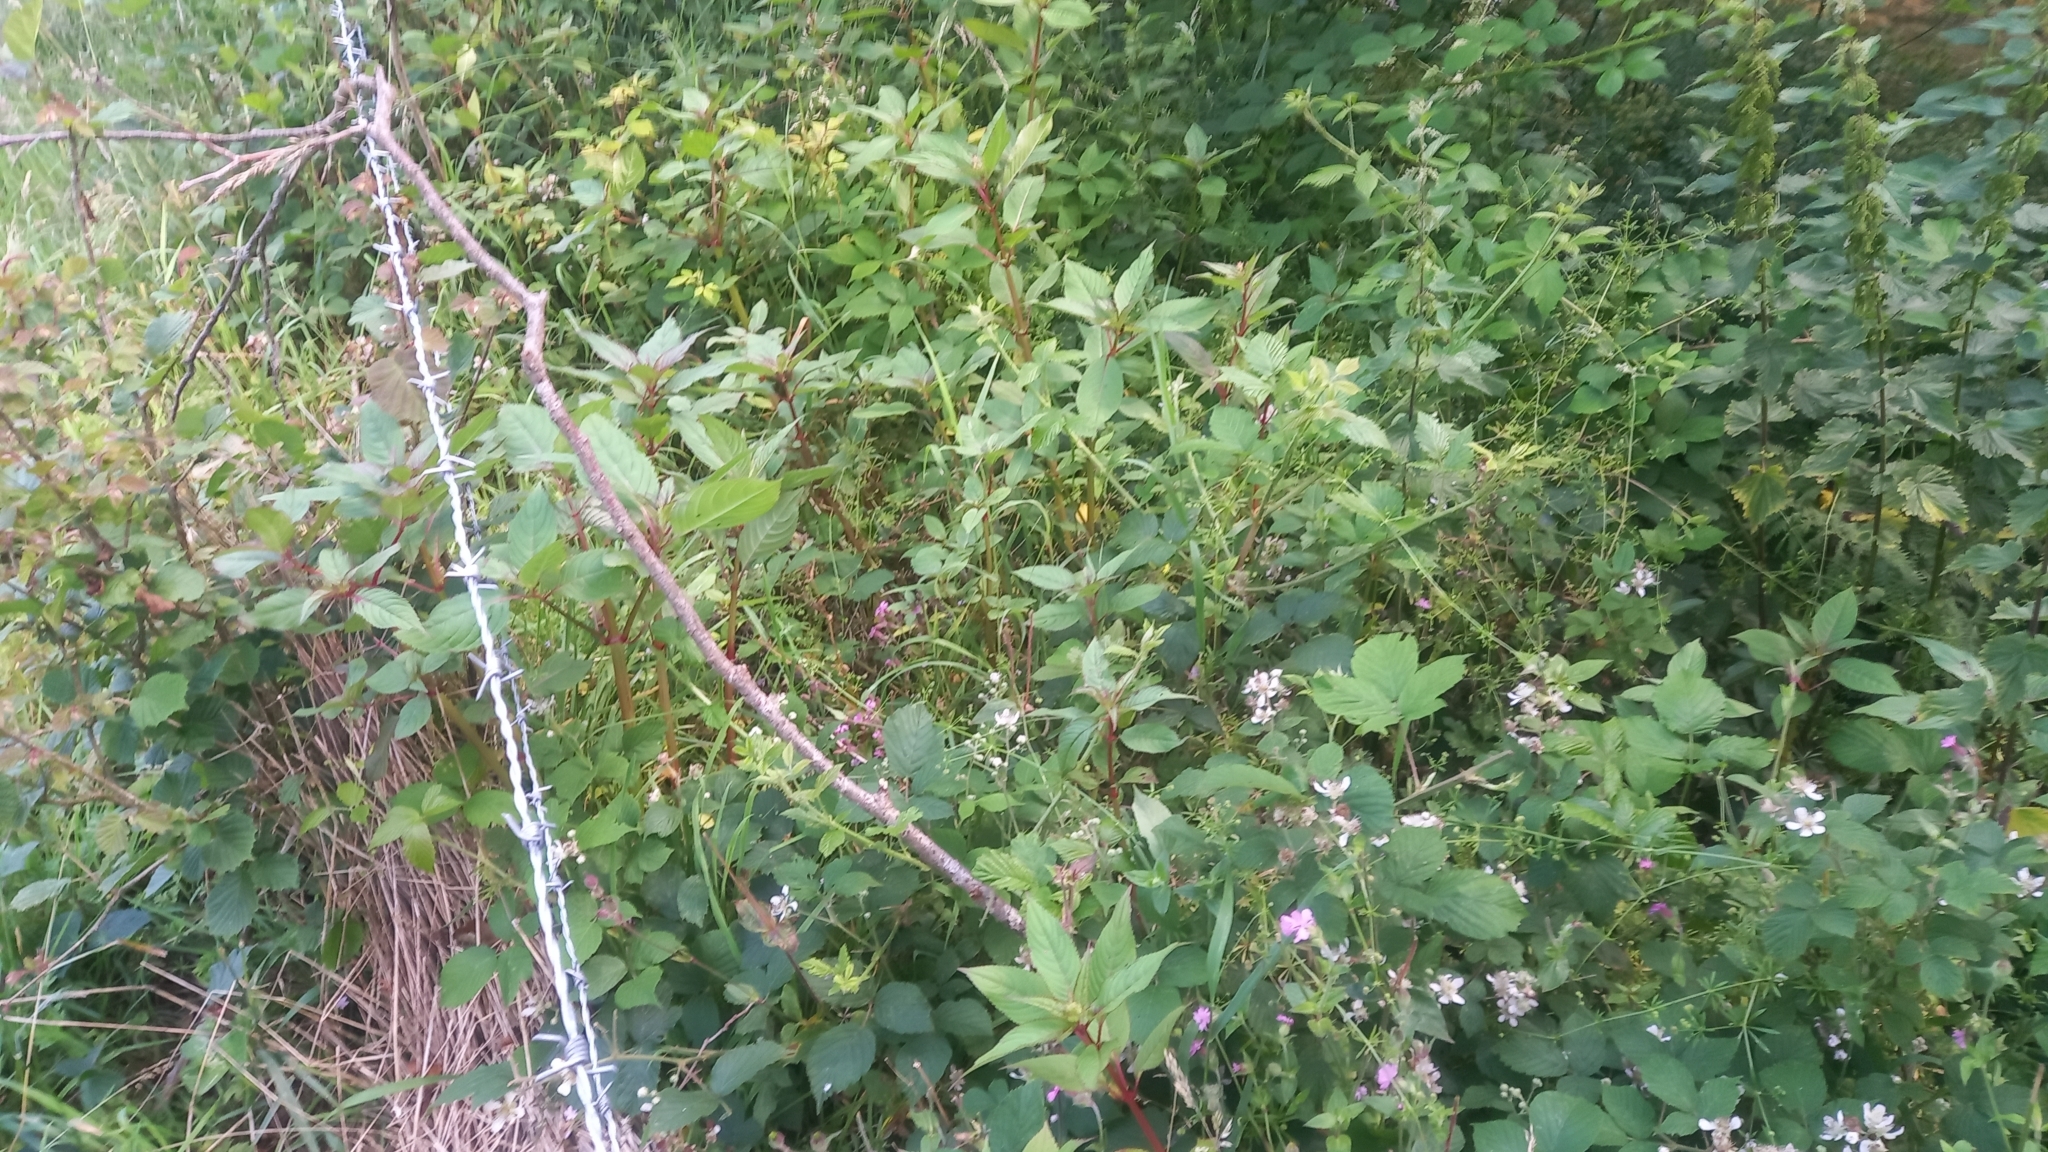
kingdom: Plantae
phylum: Tracheophyta
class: Magnoliopsida
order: Ericales
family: Balsaminaceae
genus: Impatiens
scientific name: Impatiens glandulifera
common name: Himalayan balsam
